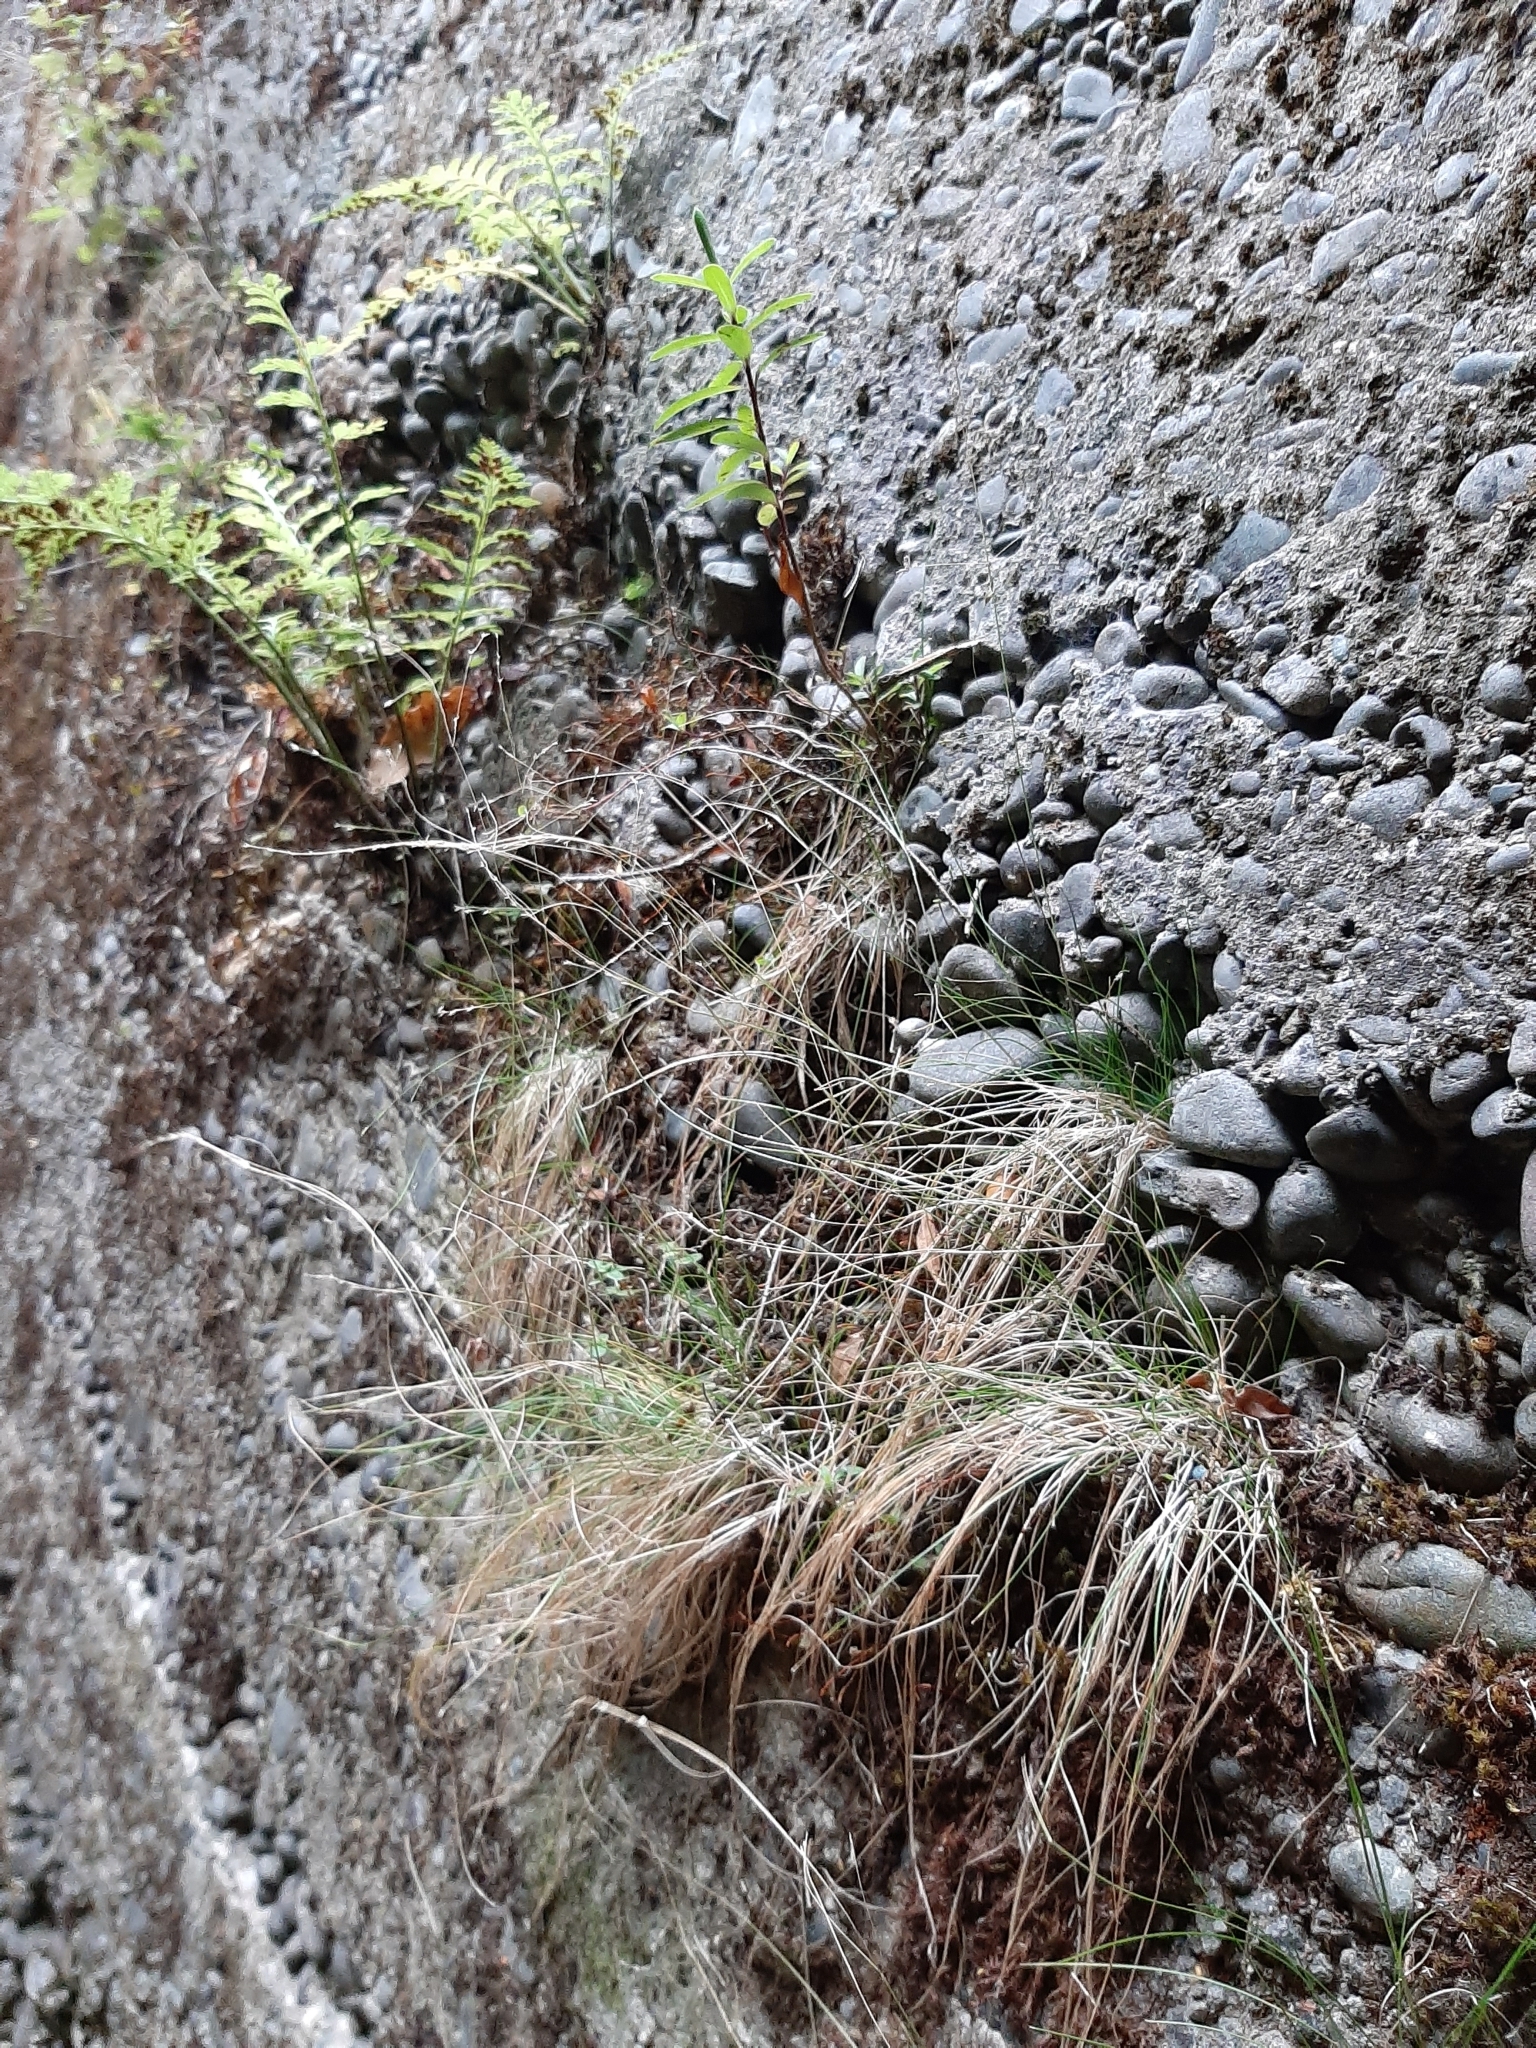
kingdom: Plantae
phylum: Tracheophyta
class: Liliopsida
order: Poales
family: Poaceae
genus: Poa
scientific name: Poa imbecilla
